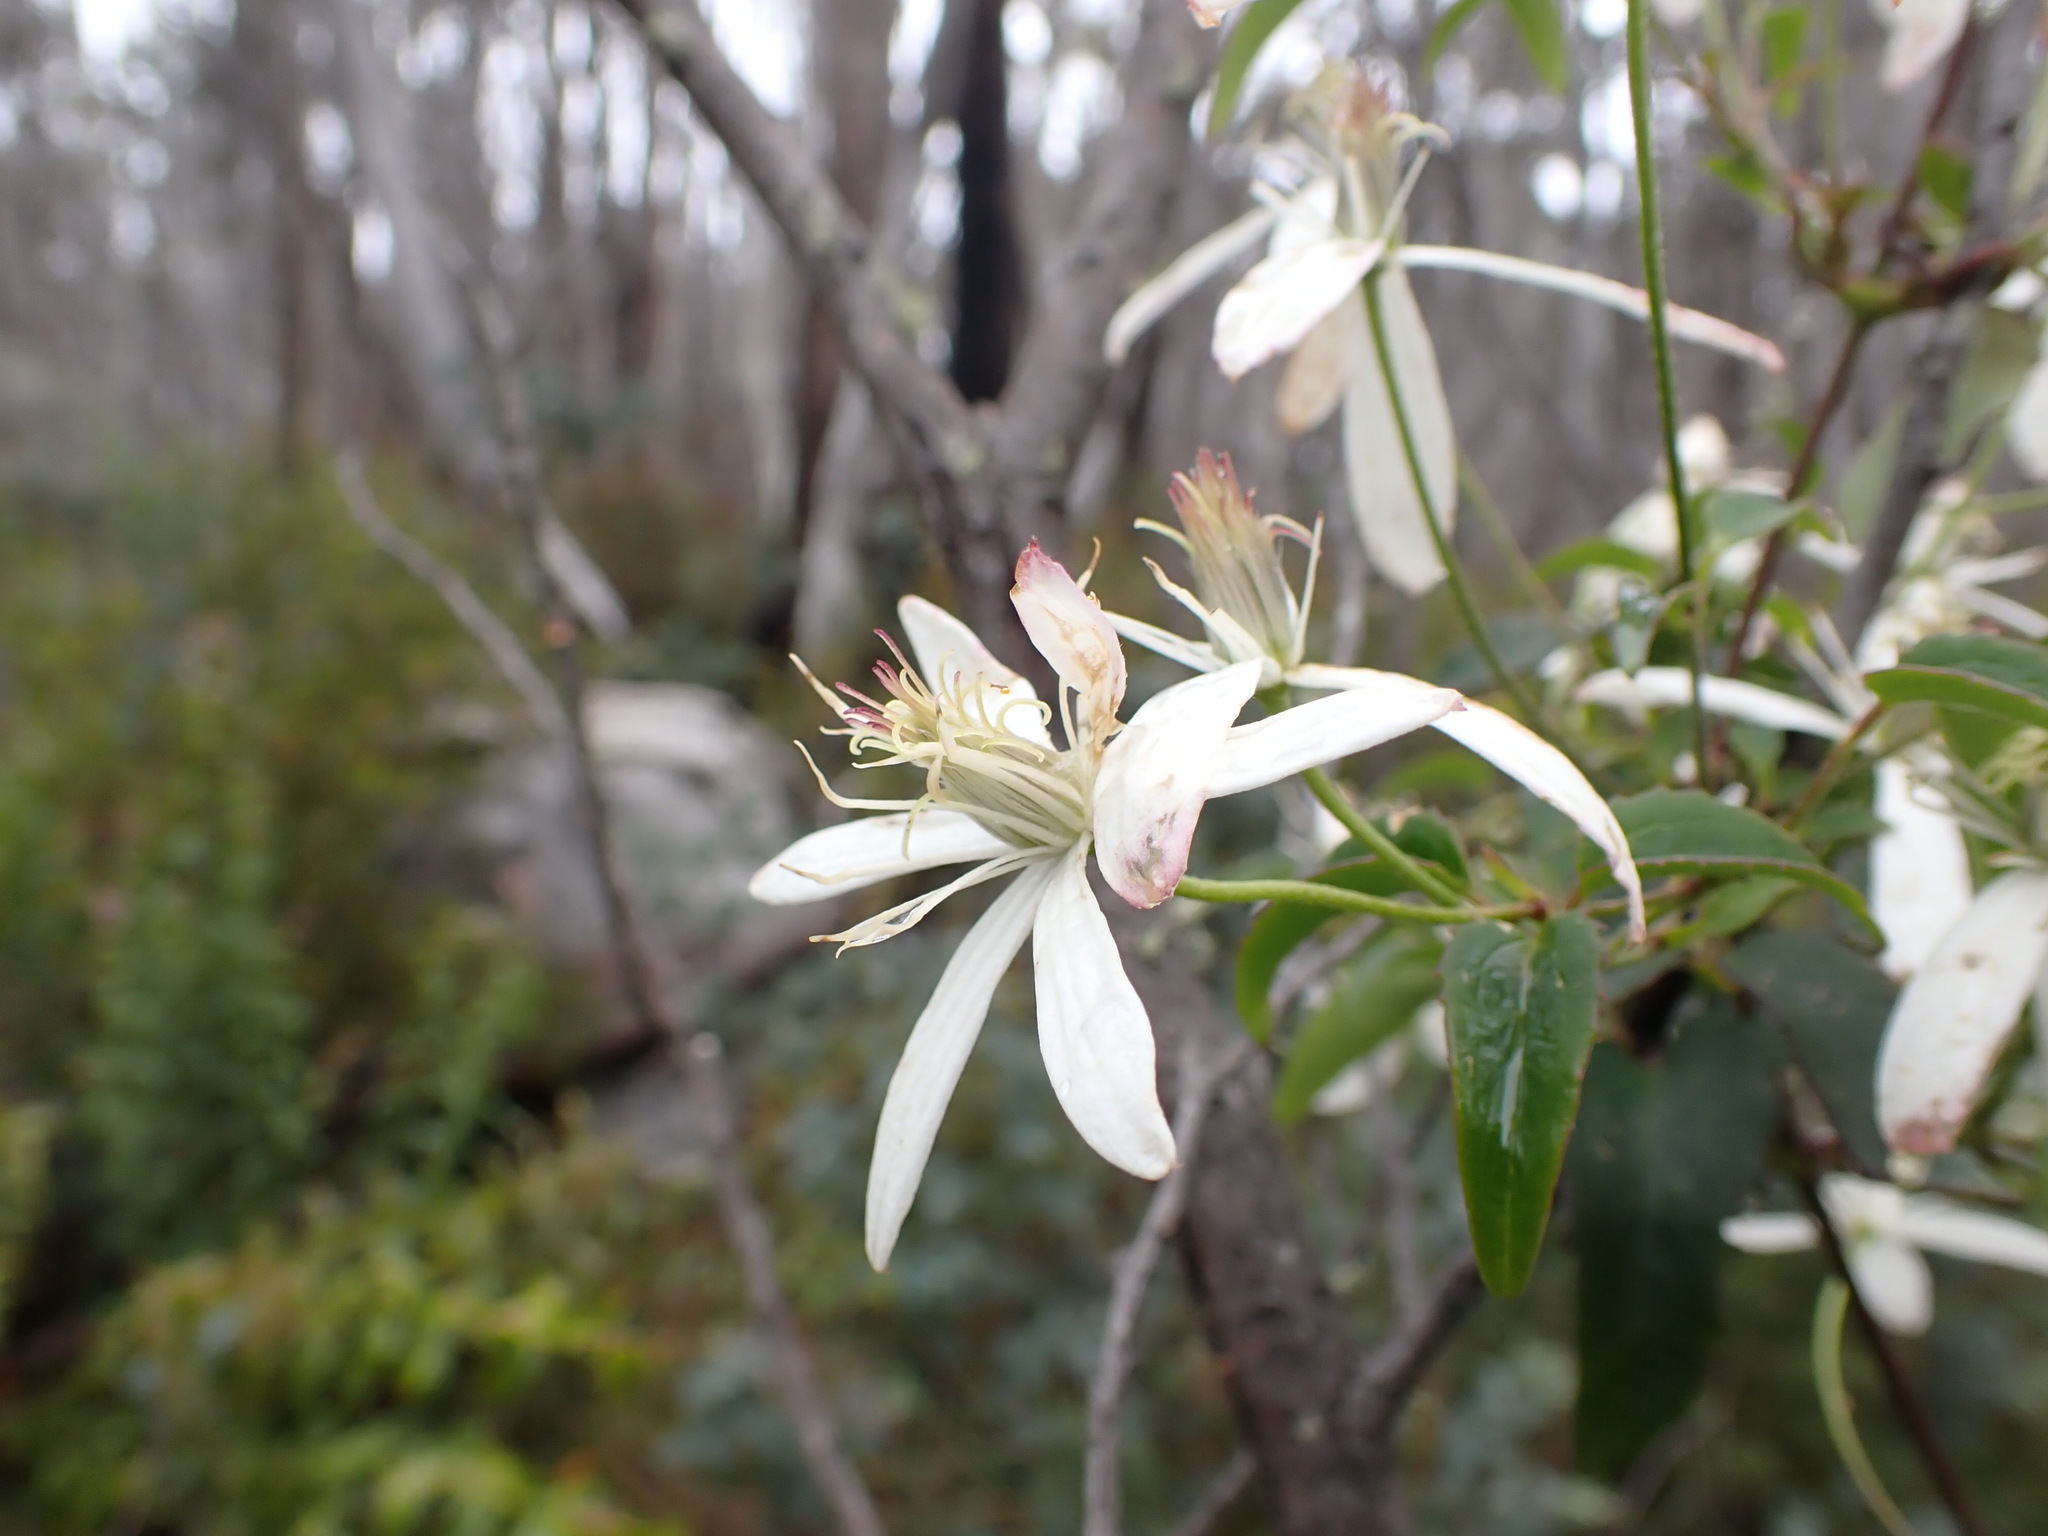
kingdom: Plantae
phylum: Tracheophyta
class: Magnoliopsida
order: Ranunculales
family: Ranunculaceae
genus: Clematis
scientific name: Clematis aristata
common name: Mountain clematis
